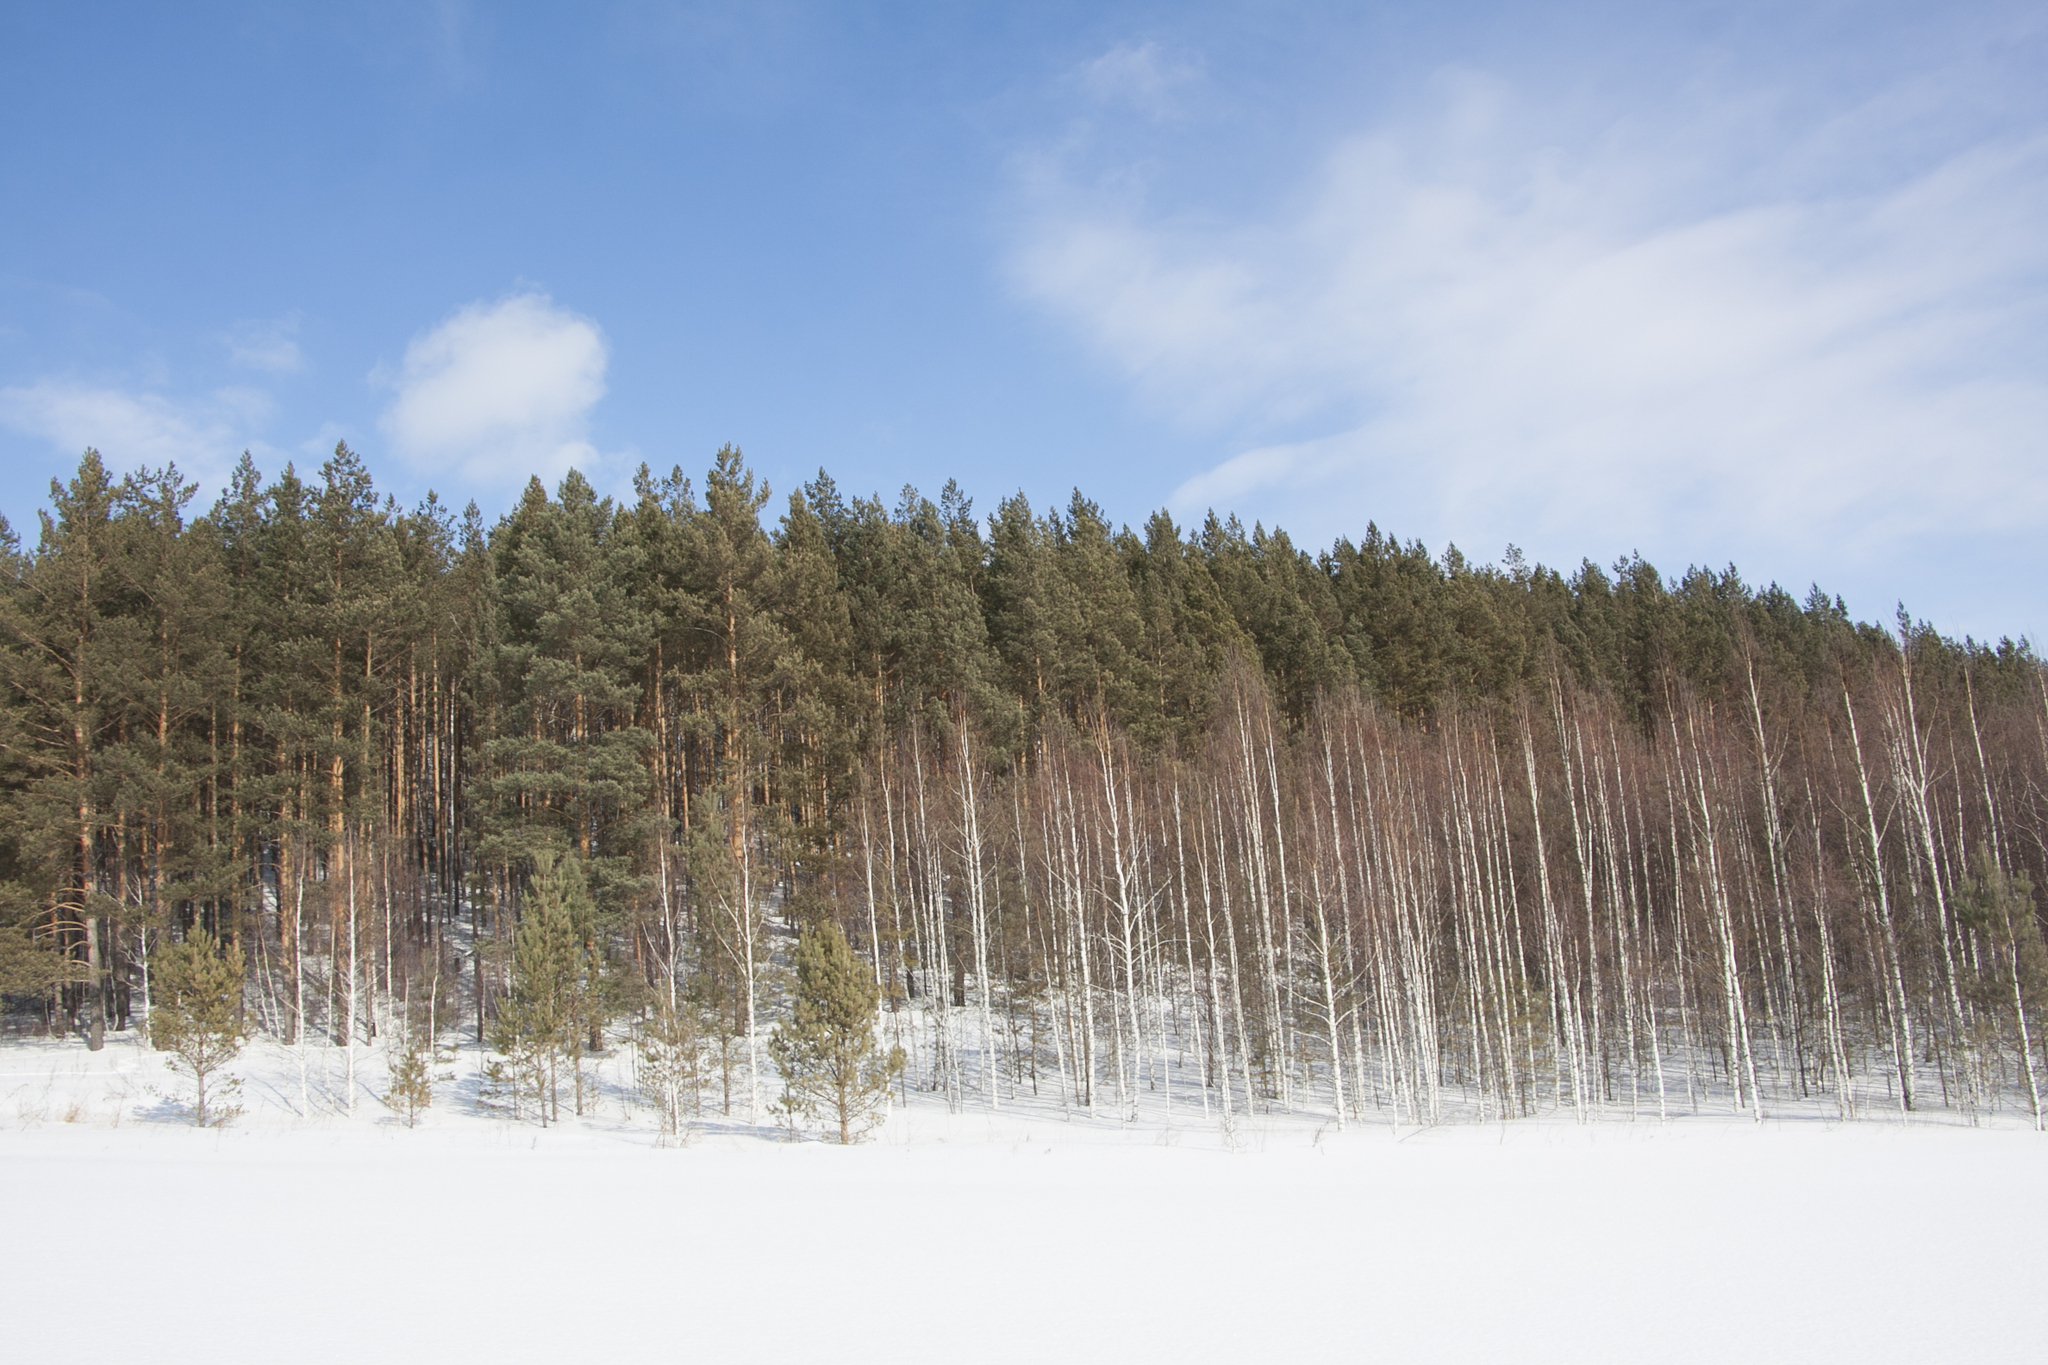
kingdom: Plantae
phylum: Tracheophyta
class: Pinopsida
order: Pinales
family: Pinaceae
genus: Pinus
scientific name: Pinus sylvestris
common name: Scots pine
